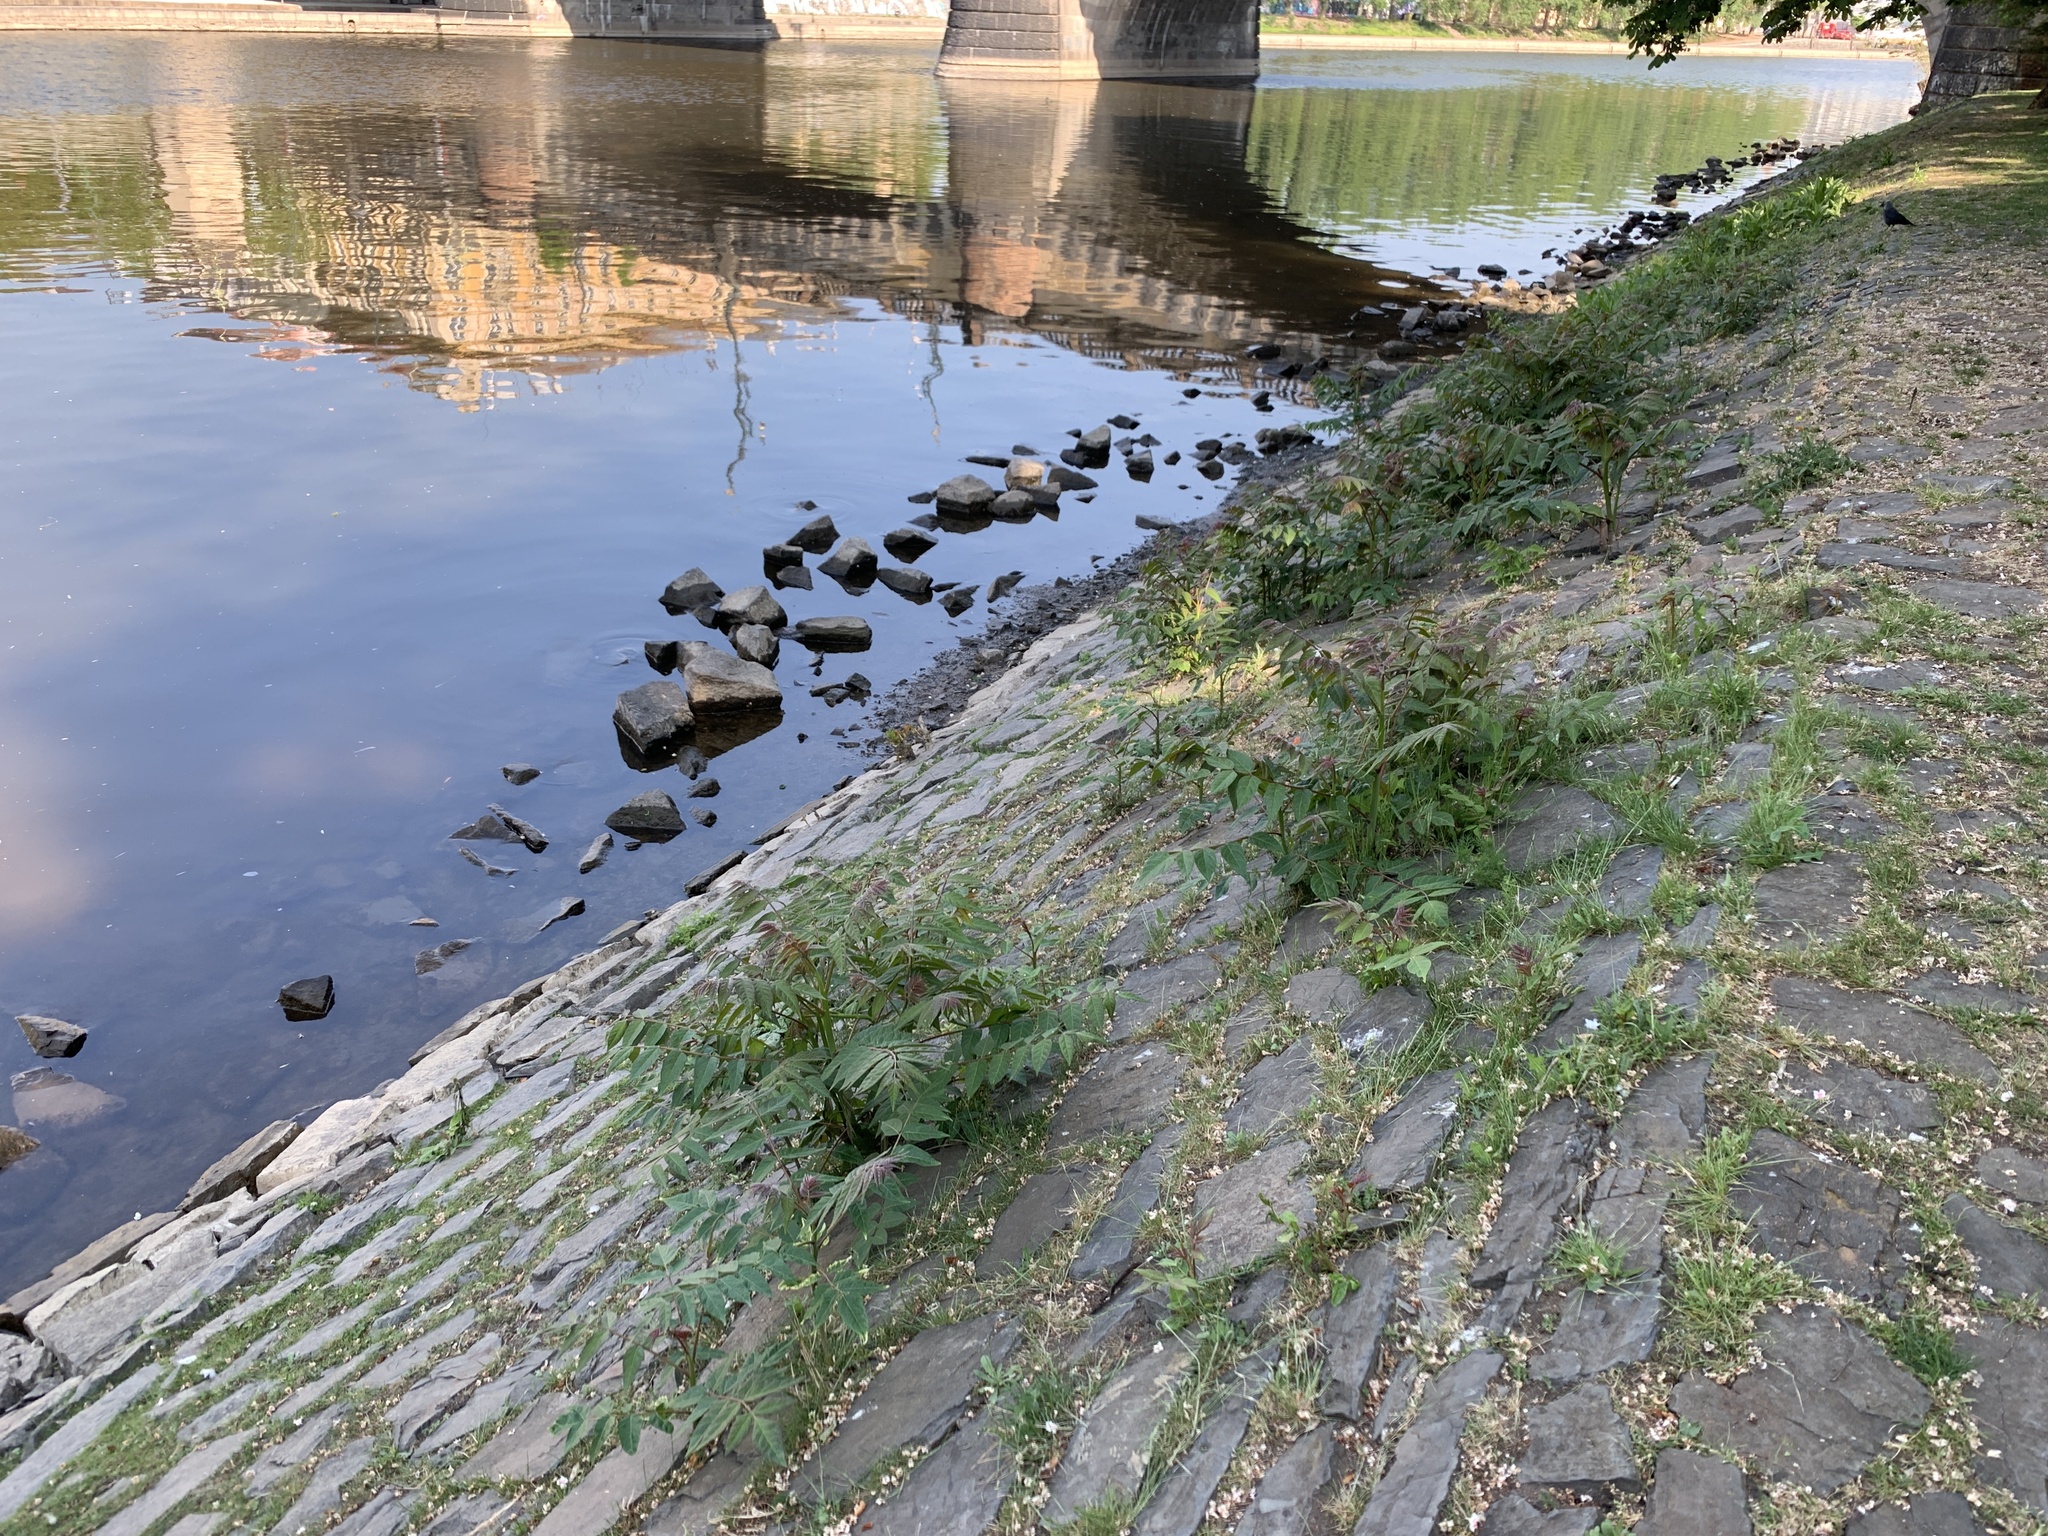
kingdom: Plantae
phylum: Tracheophyta
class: Magnoliopsida
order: Sapindales
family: Simaroubaceae
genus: Ailanthus
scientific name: Ailanthus altissima
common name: Tree-of-heaven
